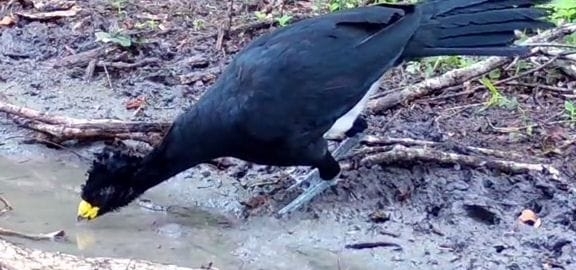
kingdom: Animalia
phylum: Chordata
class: Aves
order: Galliformes
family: Cracidae
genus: Crax
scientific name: Crax rubra
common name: Great curassow
